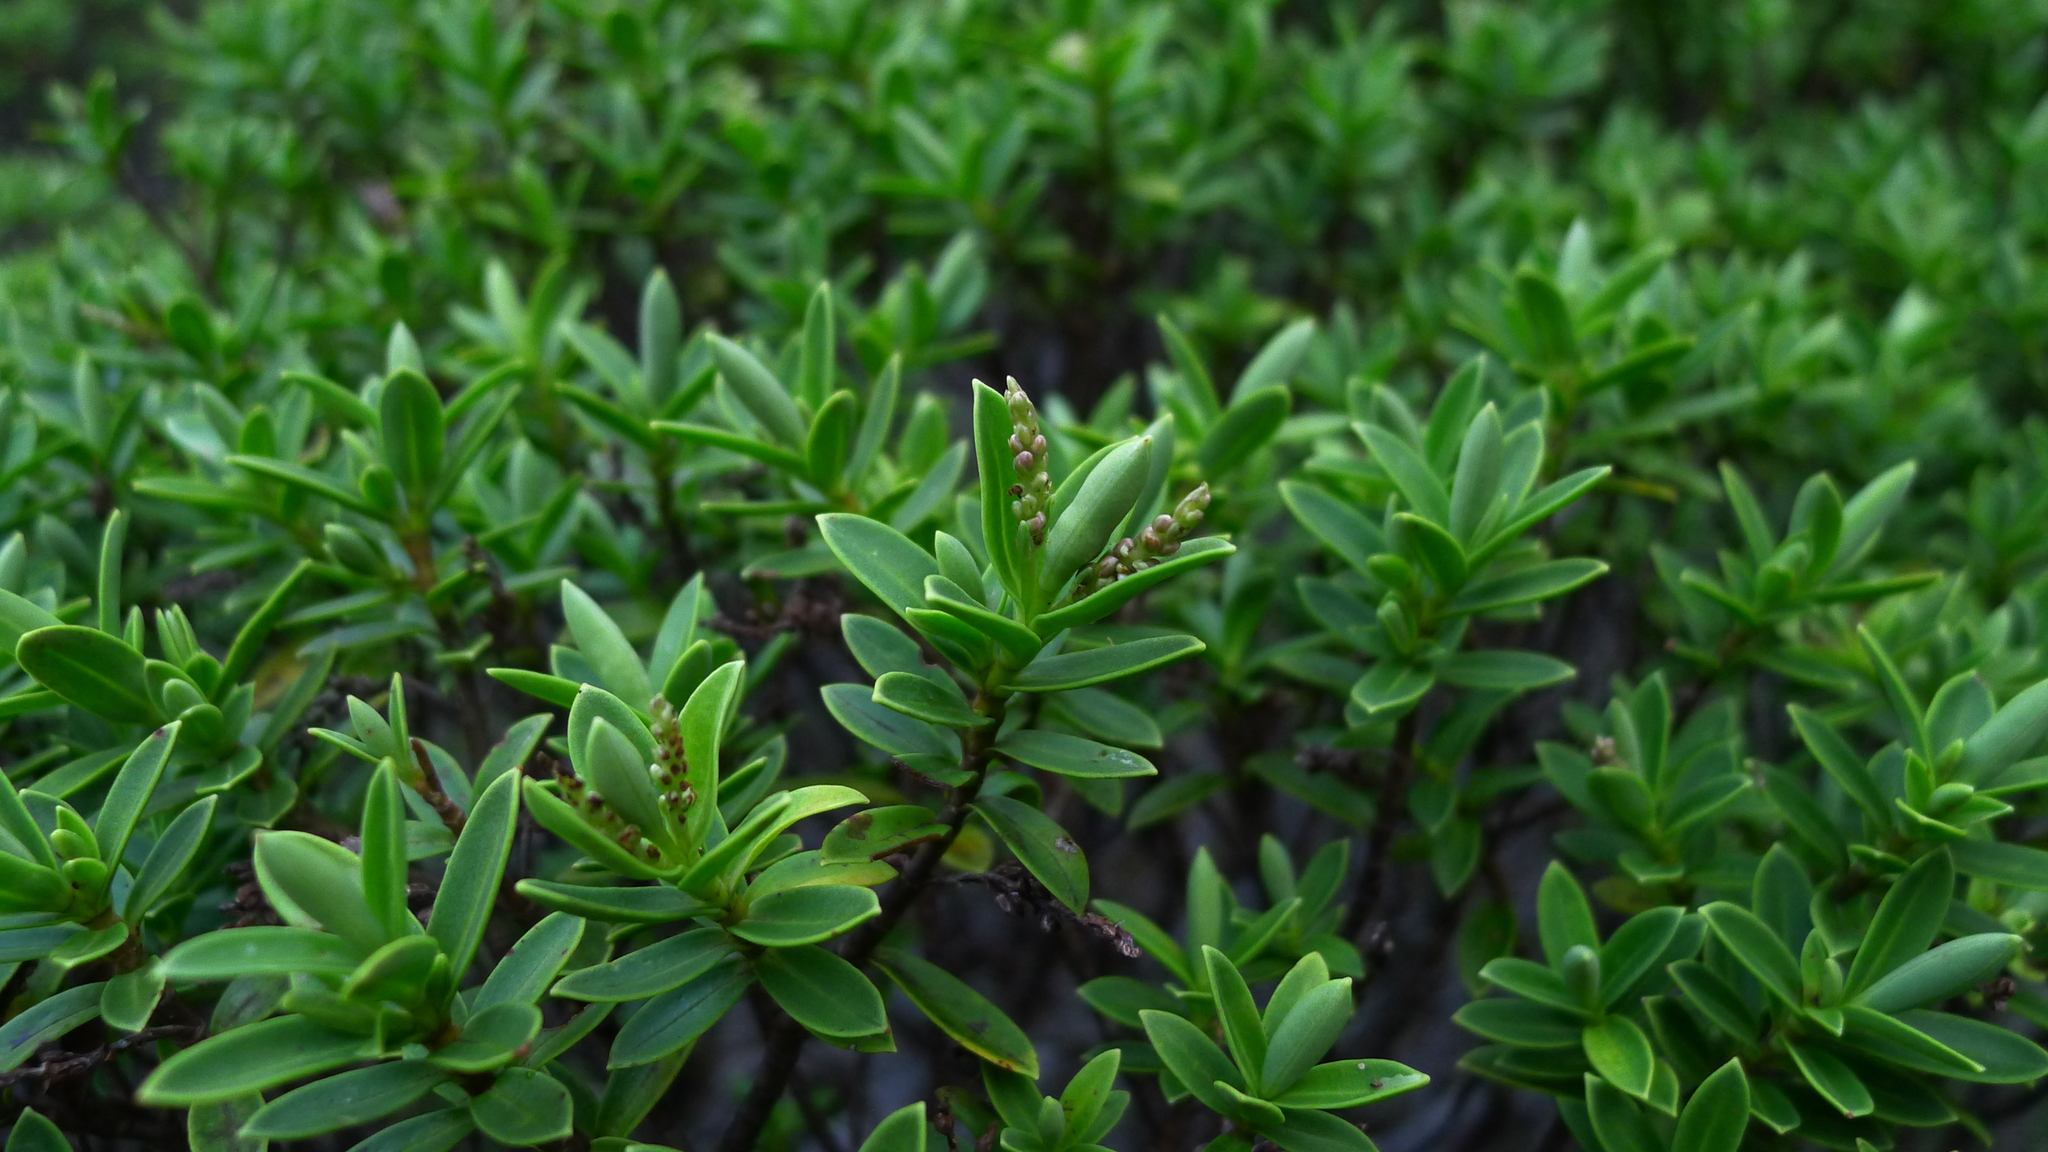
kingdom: Plantae
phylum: Tracheophyta
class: Magnoliopsida
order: Lamiales
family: Plantaginaceae
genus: Veronica
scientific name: Veronica topiaria
